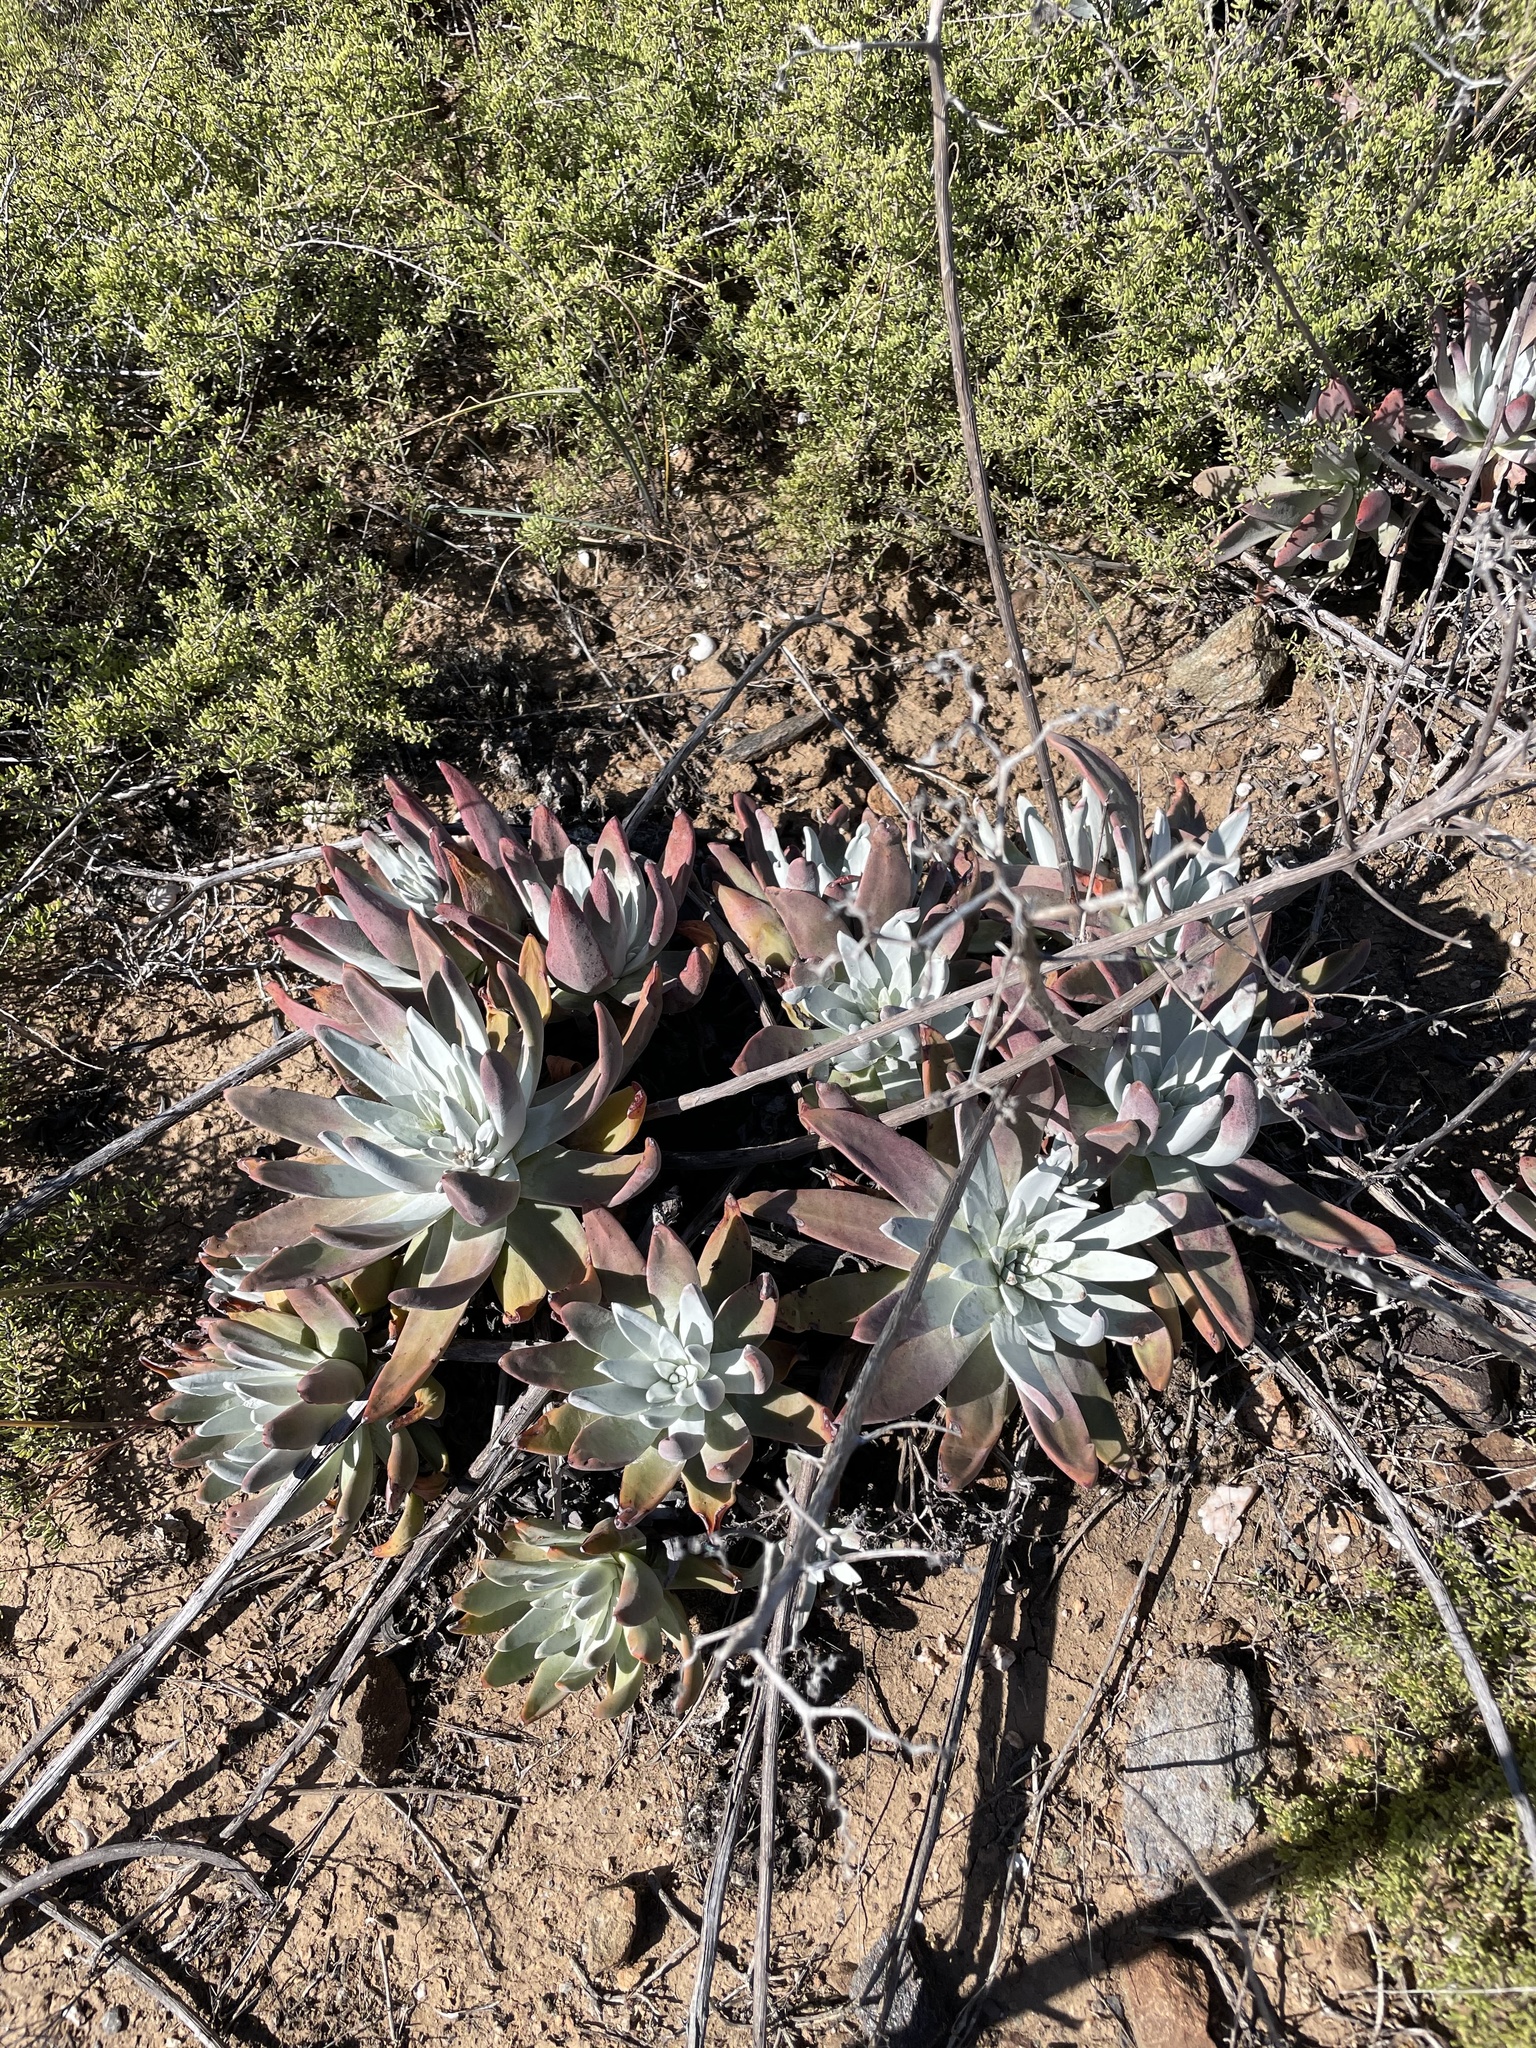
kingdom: Plantae
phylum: Tracheophyta
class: Magnoliopsida
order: Saxifragales
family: Crassulaceae
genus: Dudleya
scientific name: Dudleya virens
